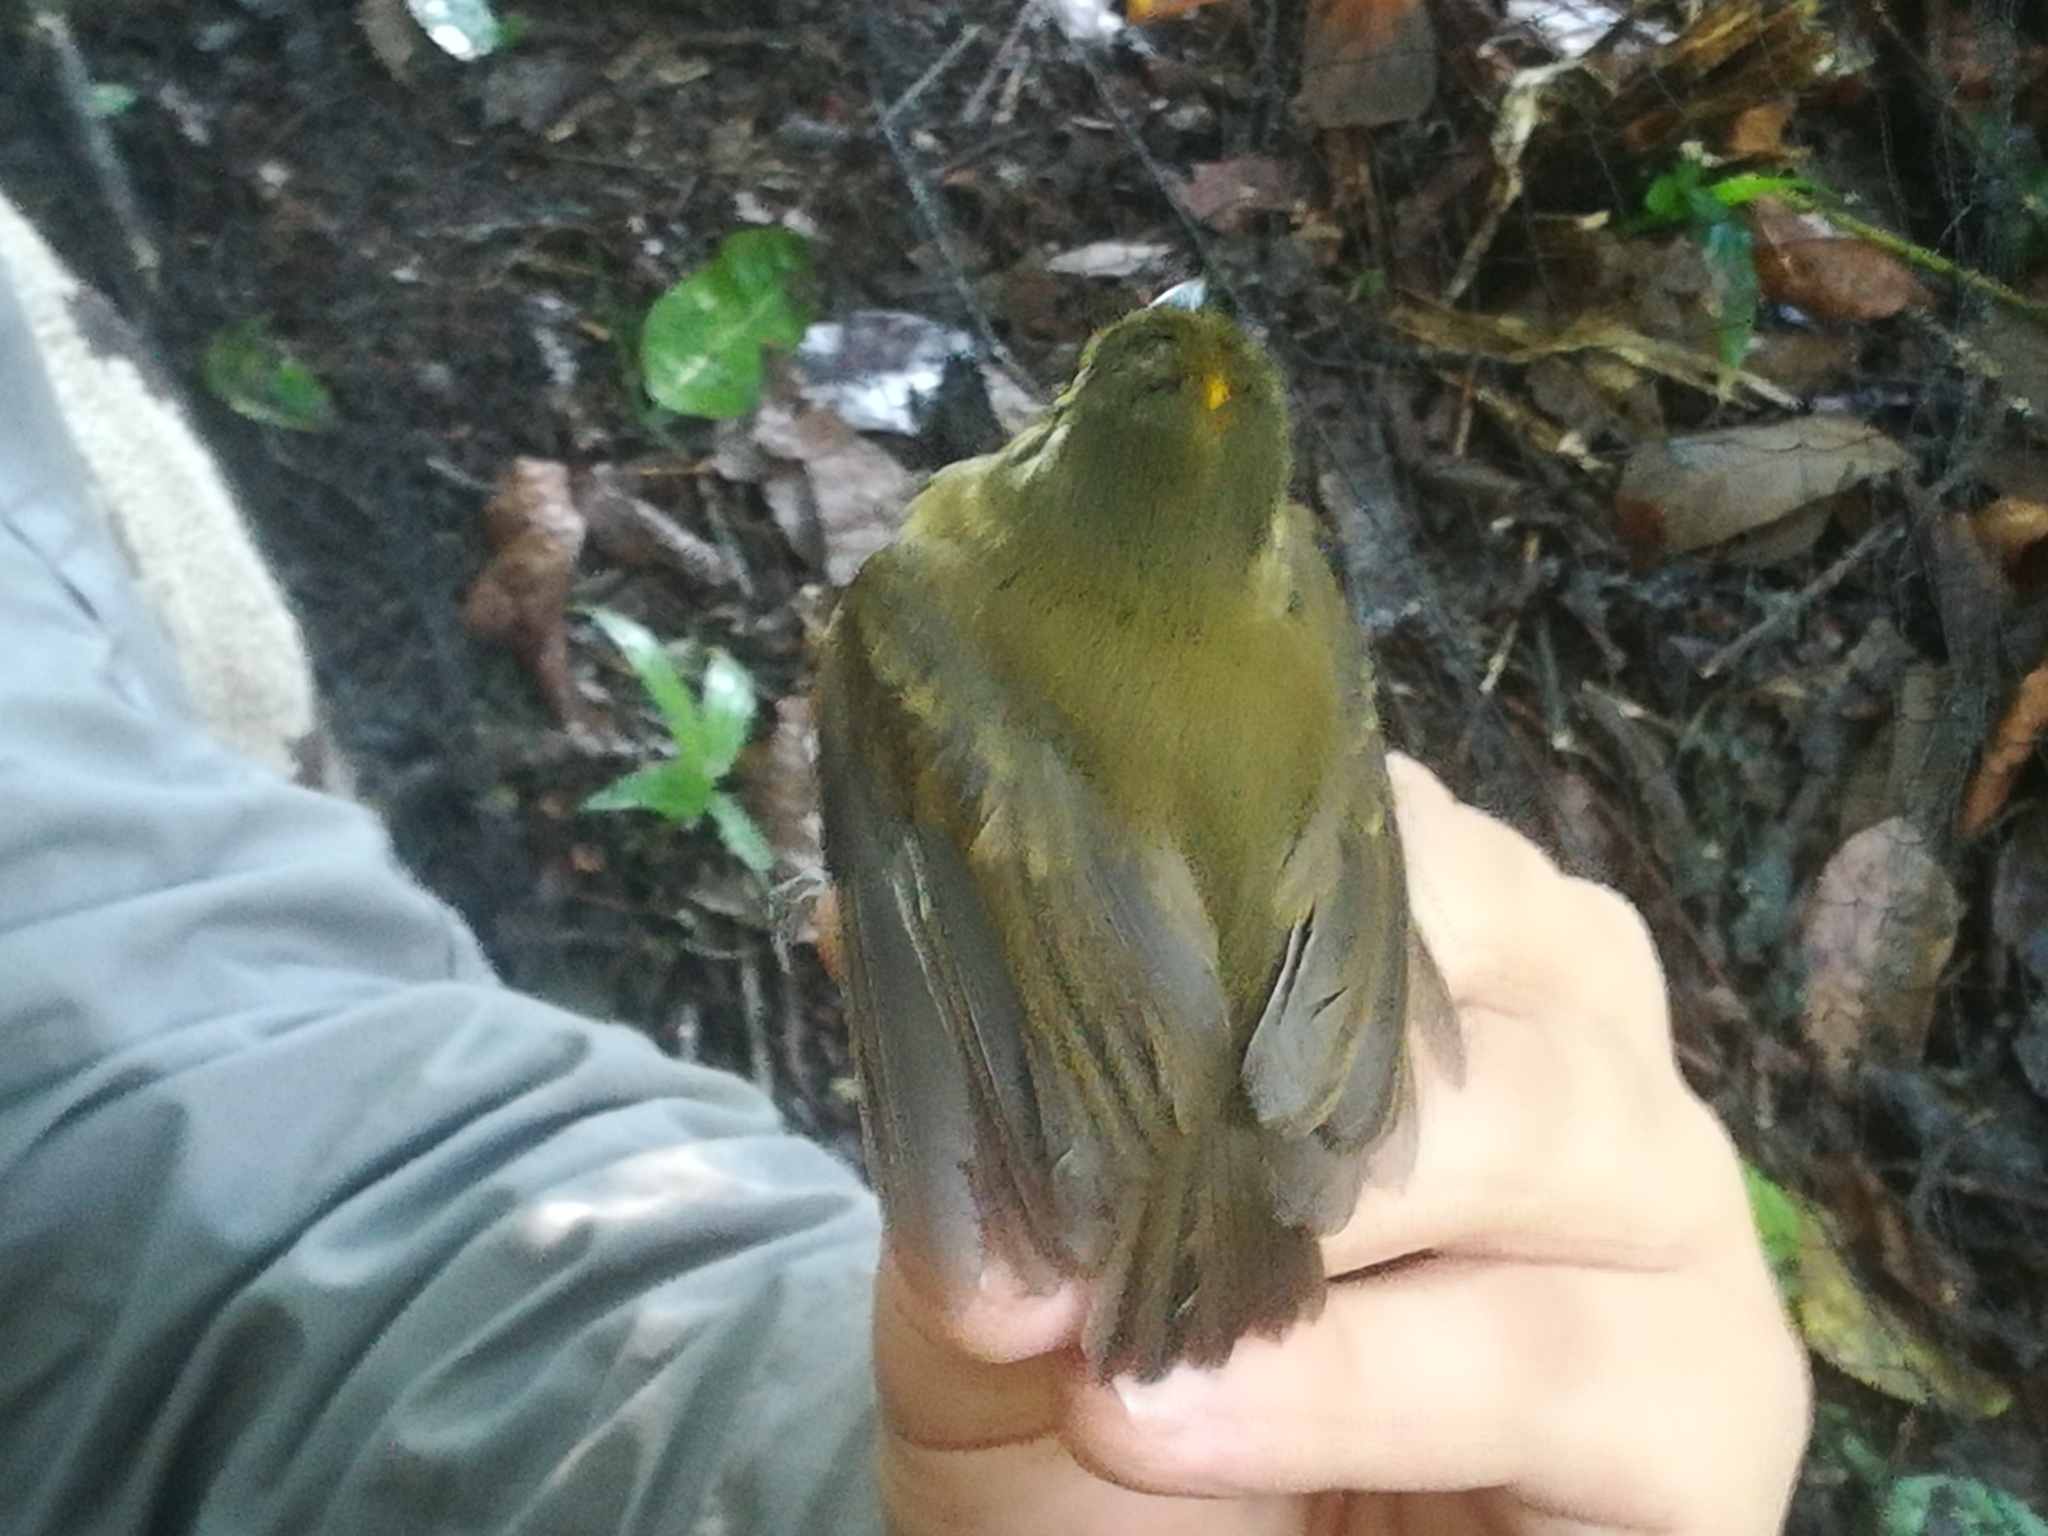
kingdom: Animalia
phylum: Chordata
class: Aves
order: Passeriformes
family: Tyrannidae
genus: Platyrinchus
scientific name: Platyrinchus mystaceus
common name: White-throated spadebill
